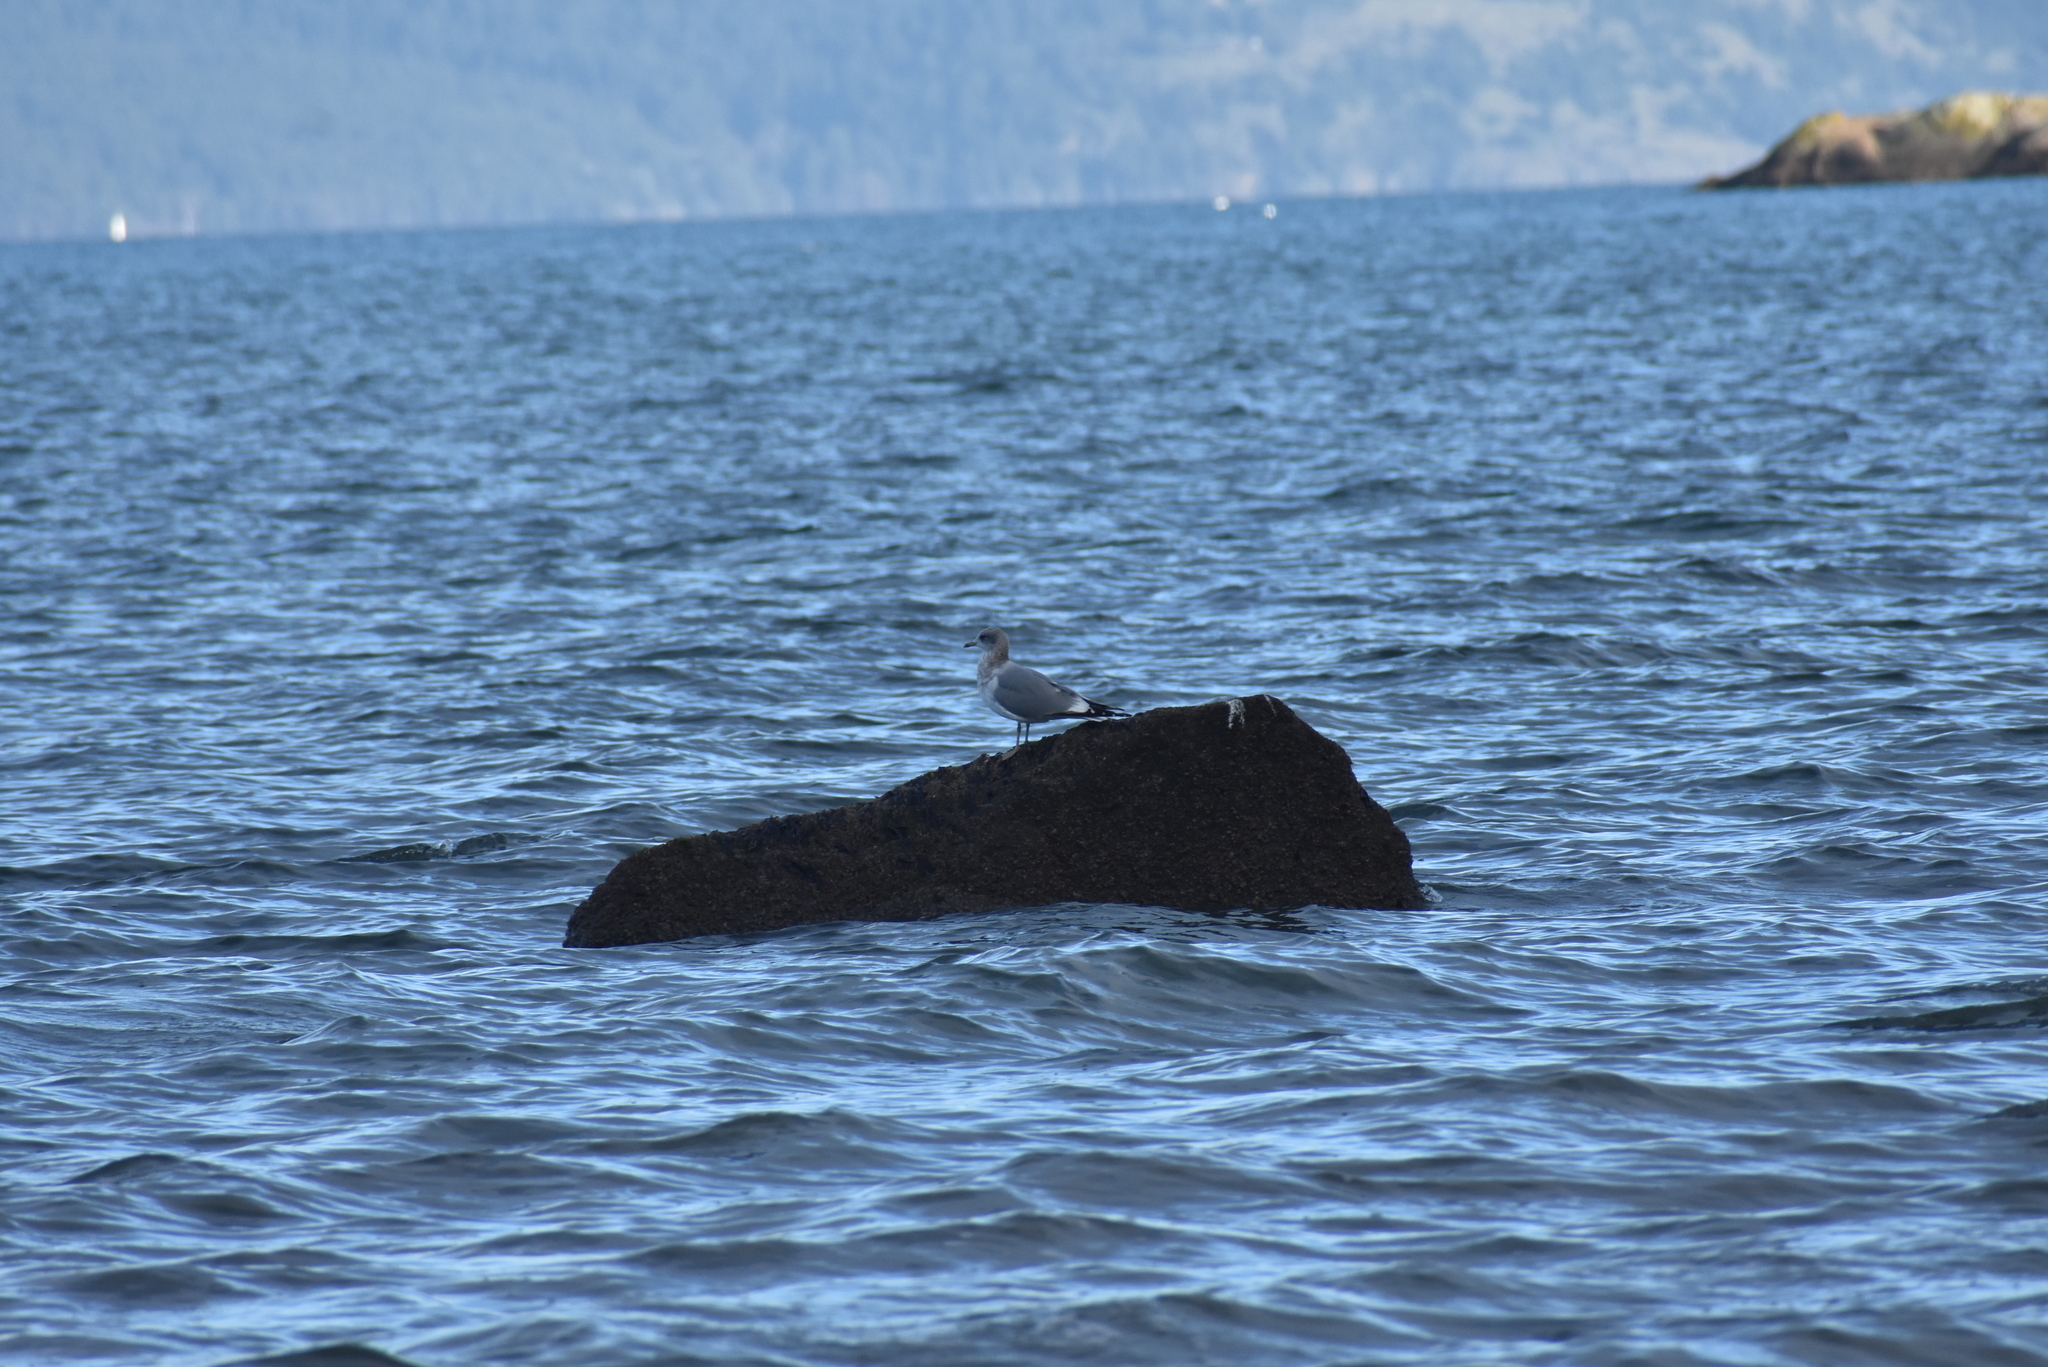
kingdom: Animalia
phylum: Chordata
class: Aves
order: Charadriiformes
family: Laridae
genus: Larus
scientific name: Larus brachyrhynchus
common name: Short-billed gull
